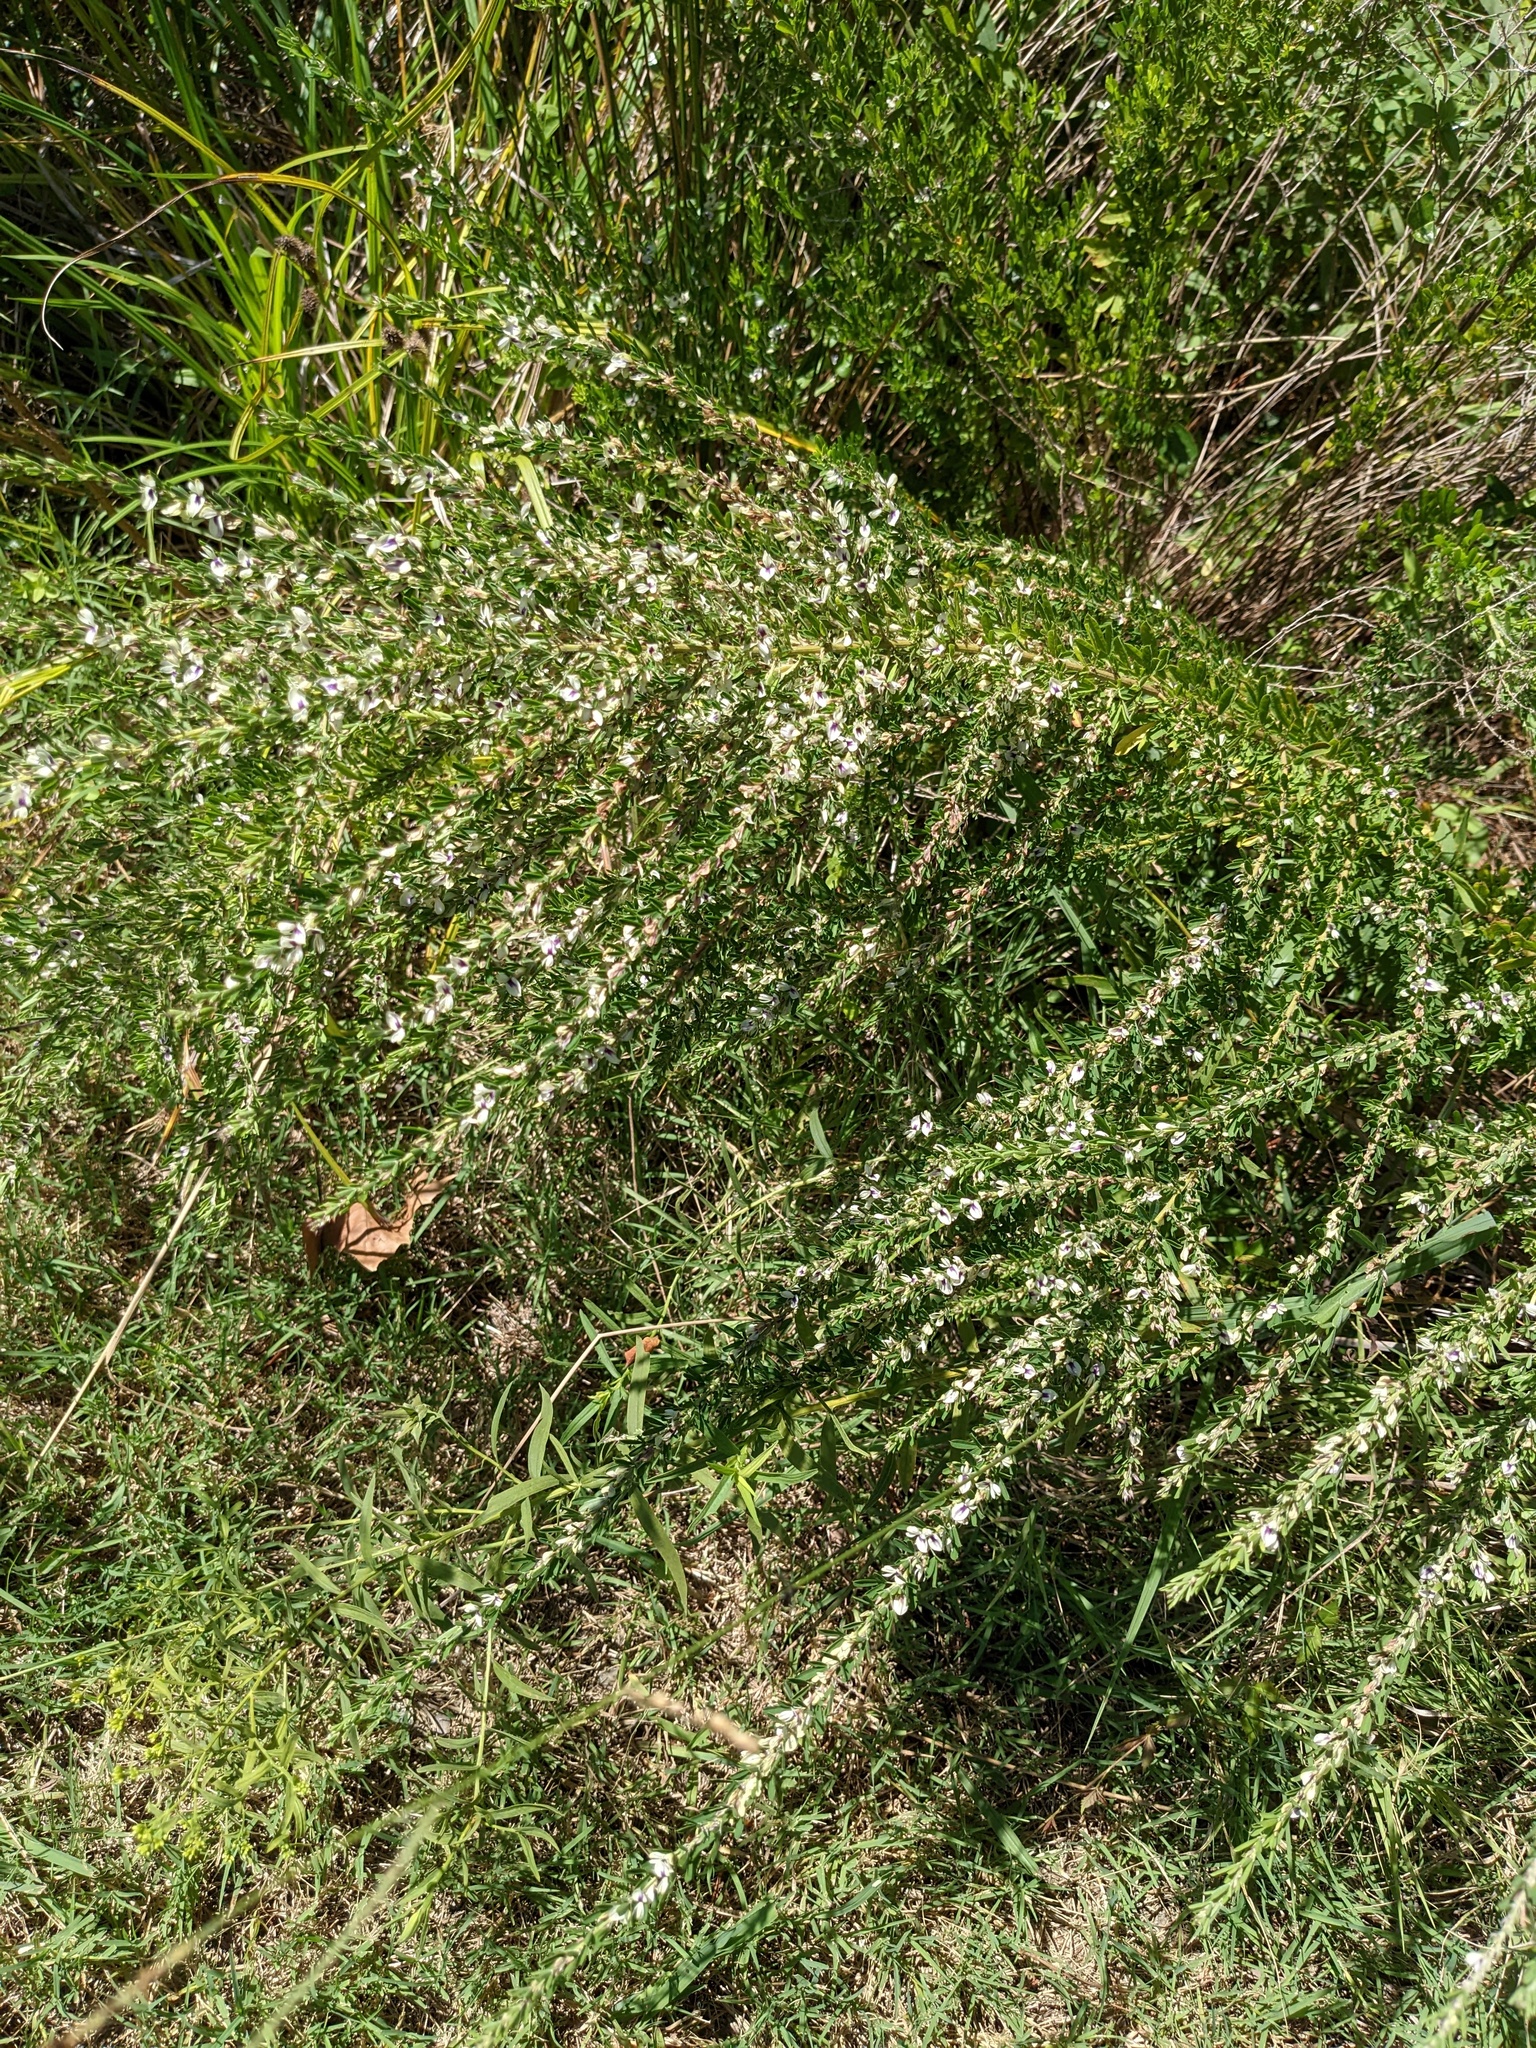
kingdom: Plantae
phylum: Tracheophyta
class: Magnoliopsida
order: Fabales
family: Fabaceae
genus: Lespedeza
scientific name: Lespedeza cuneata
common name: Chinese bush-clover
